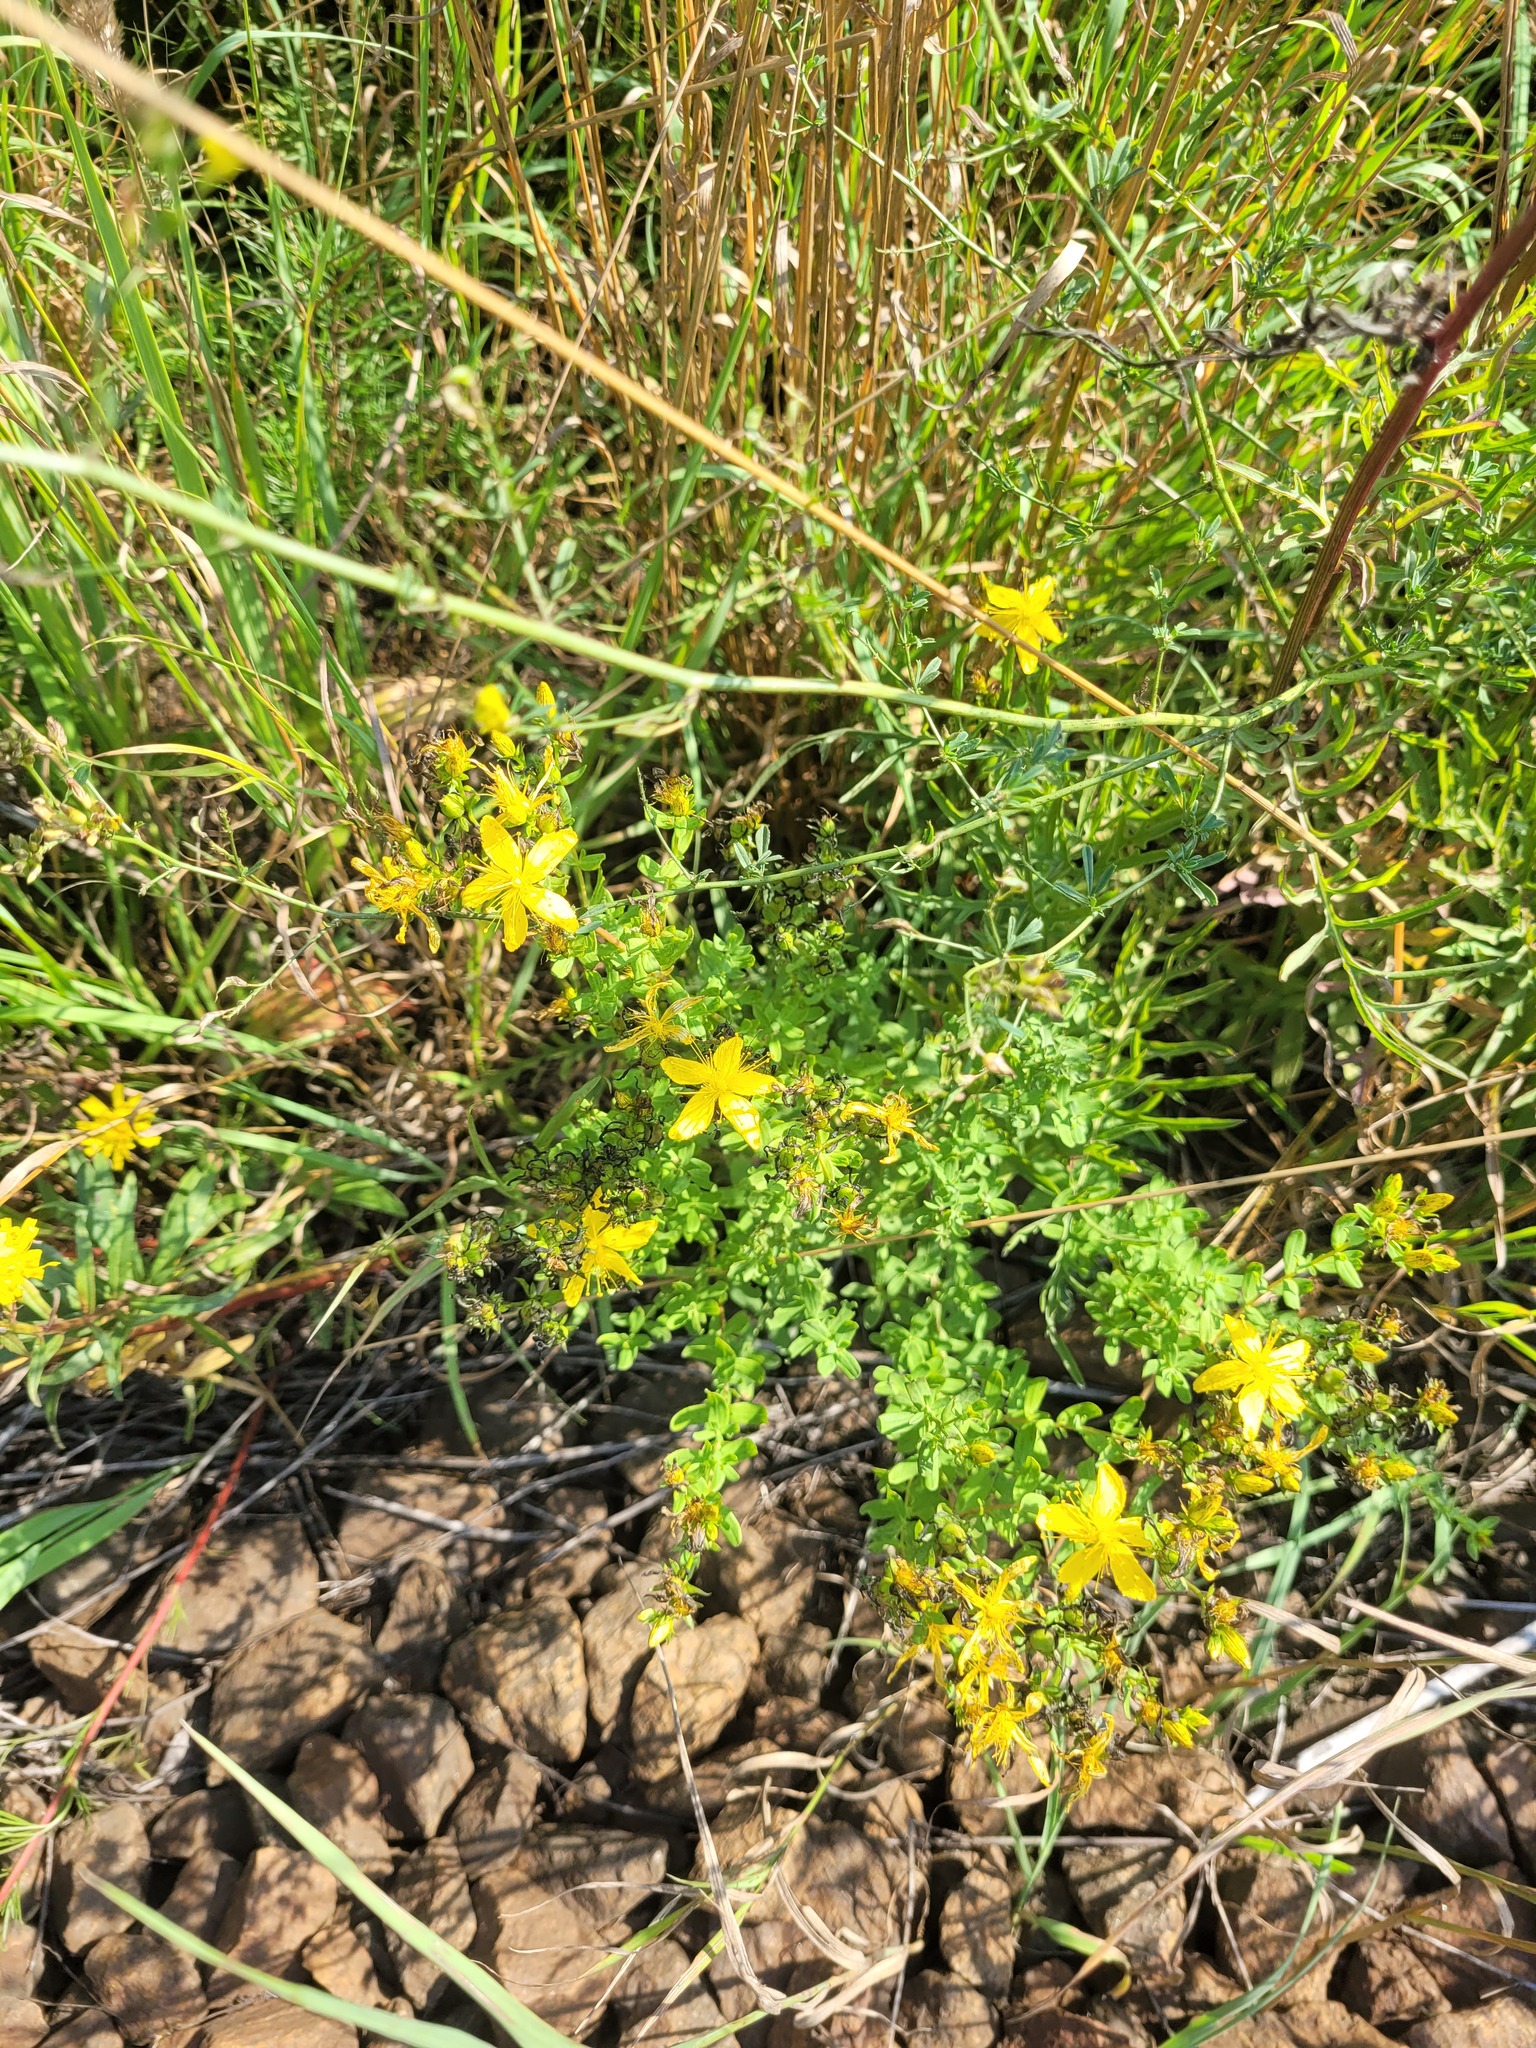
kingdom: Plantae
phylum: Tracheophyta
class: Magnoliopsida
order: Malpighiales
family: Hypericaceae
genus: Hypericum
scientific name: Hypericum perforatum
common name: Common st. johnswort
